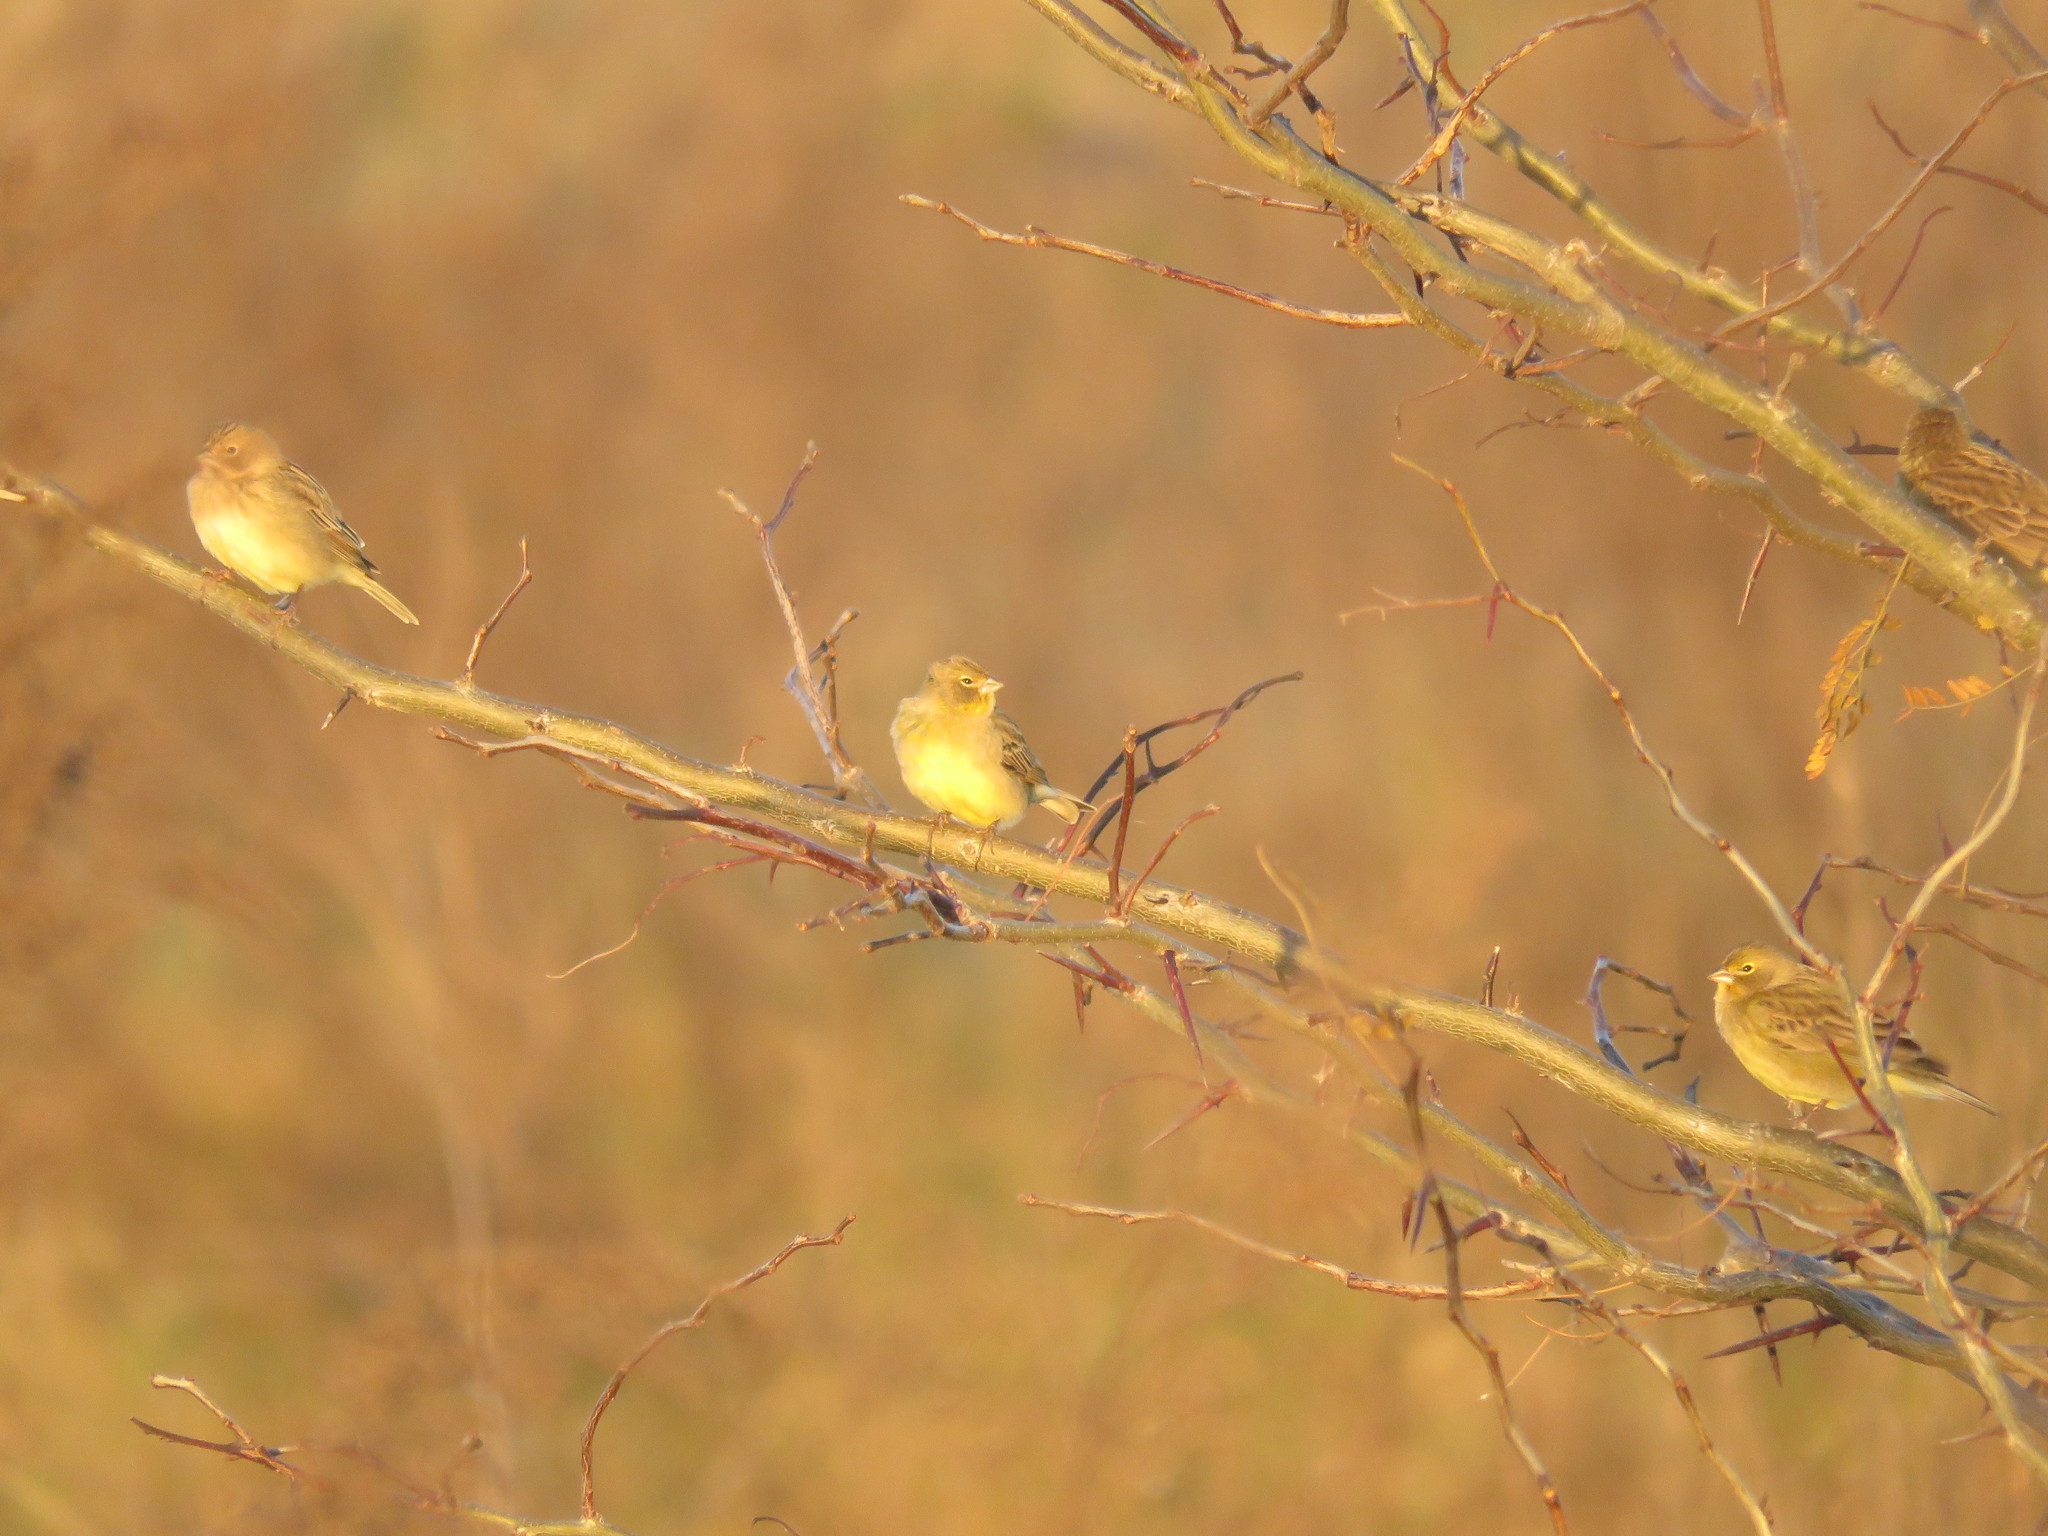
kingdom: Animalia
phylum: Chordata
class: Aves
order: Passeriformes
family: Thraupidae
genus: Sicalis
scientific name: Sicalis luteola
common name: Grassland yellow-finch
